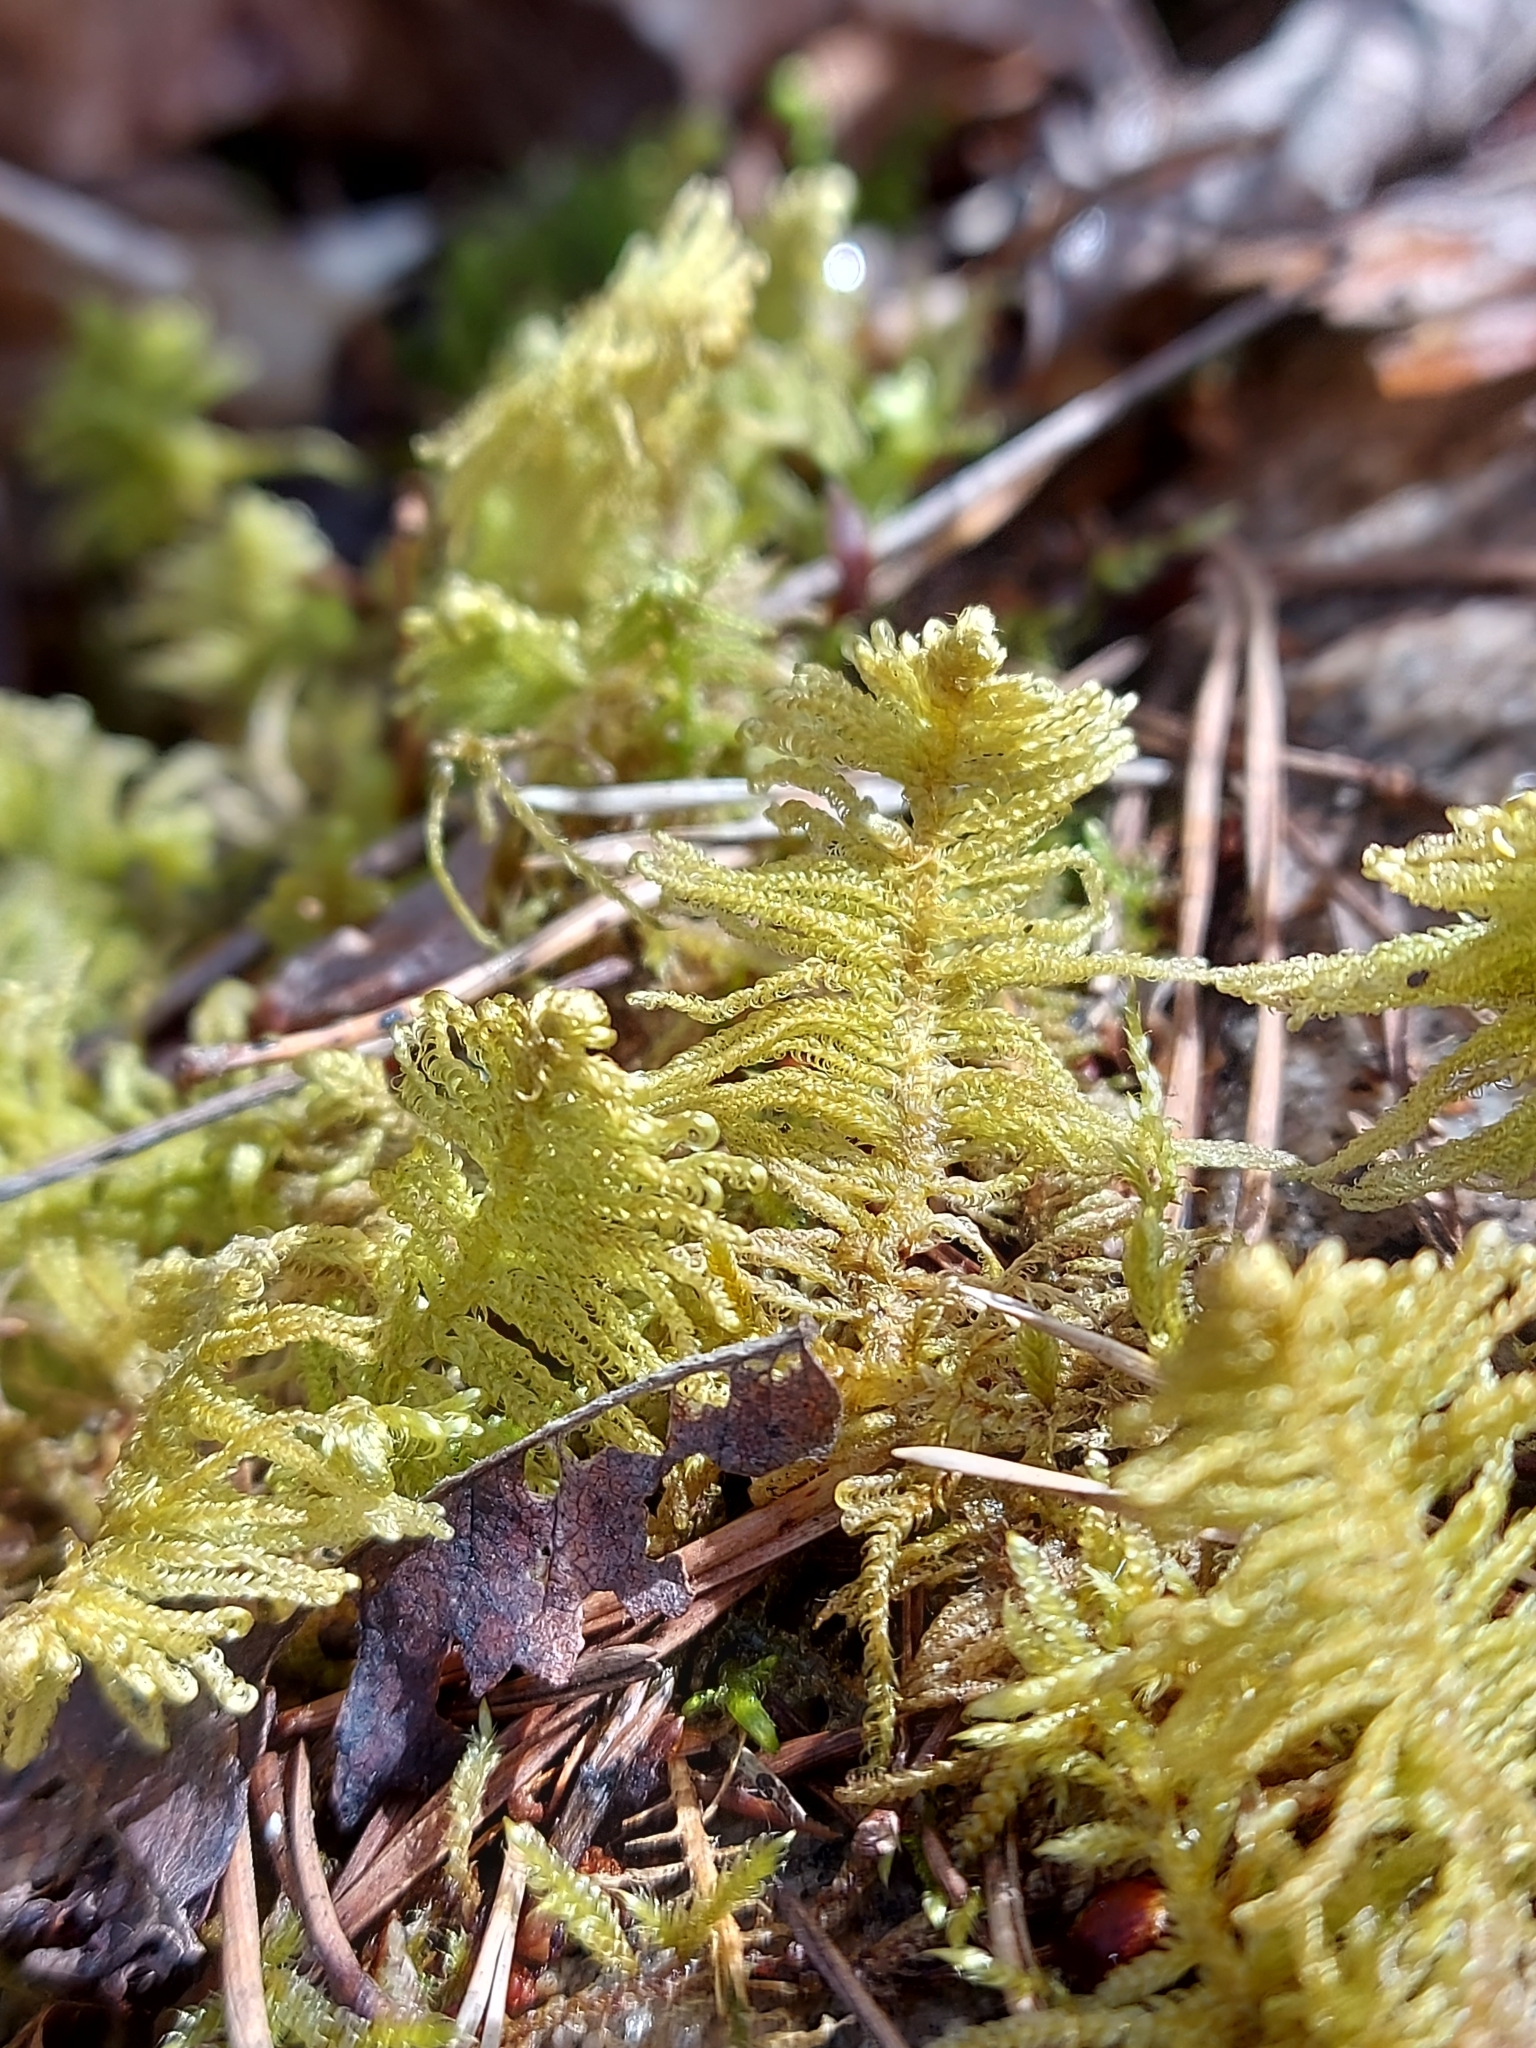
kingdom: Plantae
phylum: Bryophyta
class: Bryopsida
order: Hypnales
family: Pylaisiaceae
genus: Ptilium
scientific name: Ptilium crista-castrensis
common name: Knight's plume moss
